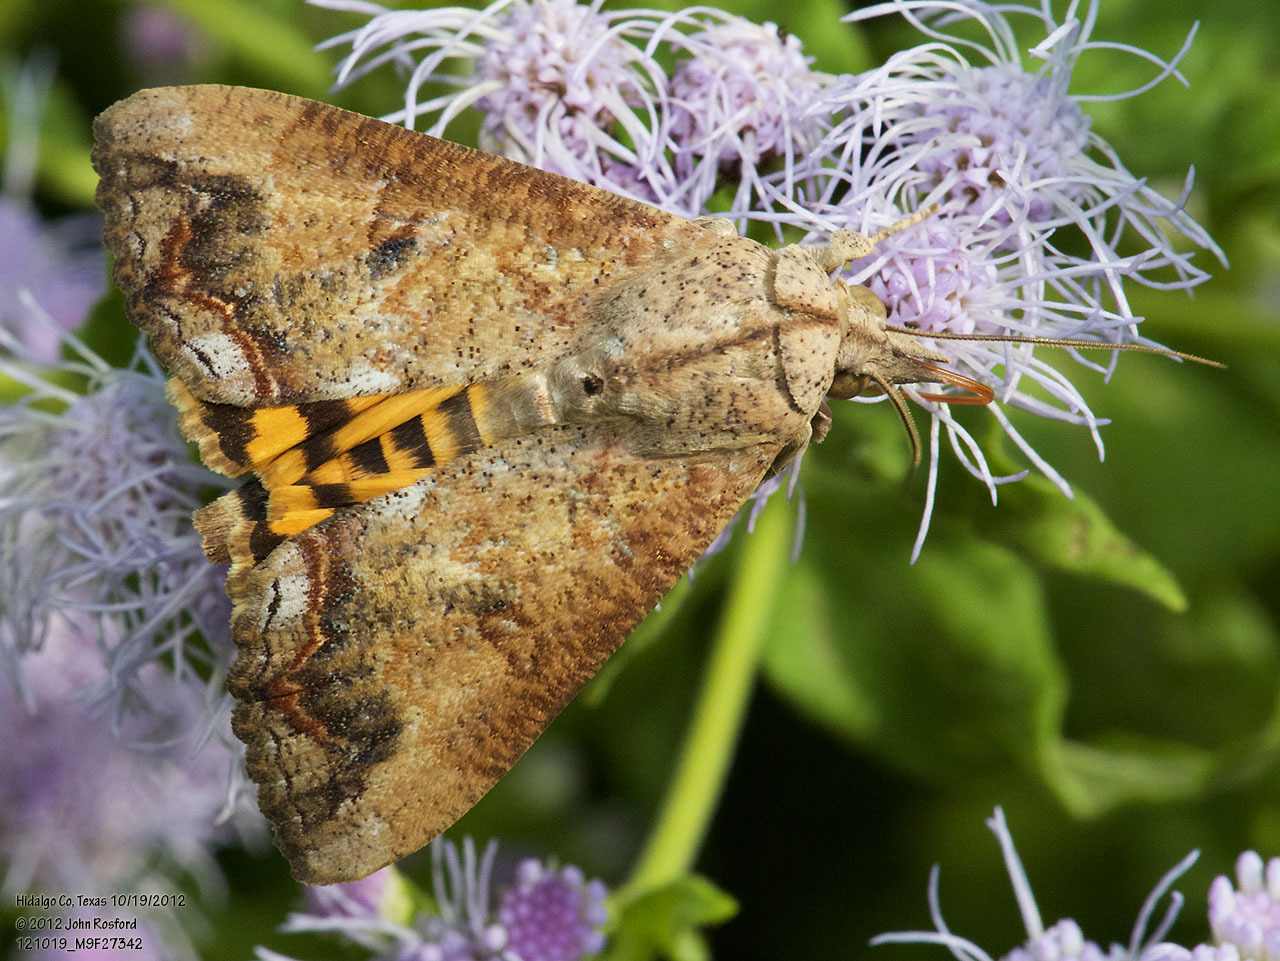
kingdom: Animalia
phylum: Arthropoda
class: Insecta
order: Lepidoptera
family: Erebidae
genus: Hypocala
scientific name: Hypocala andremona
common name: Hypocala moth
